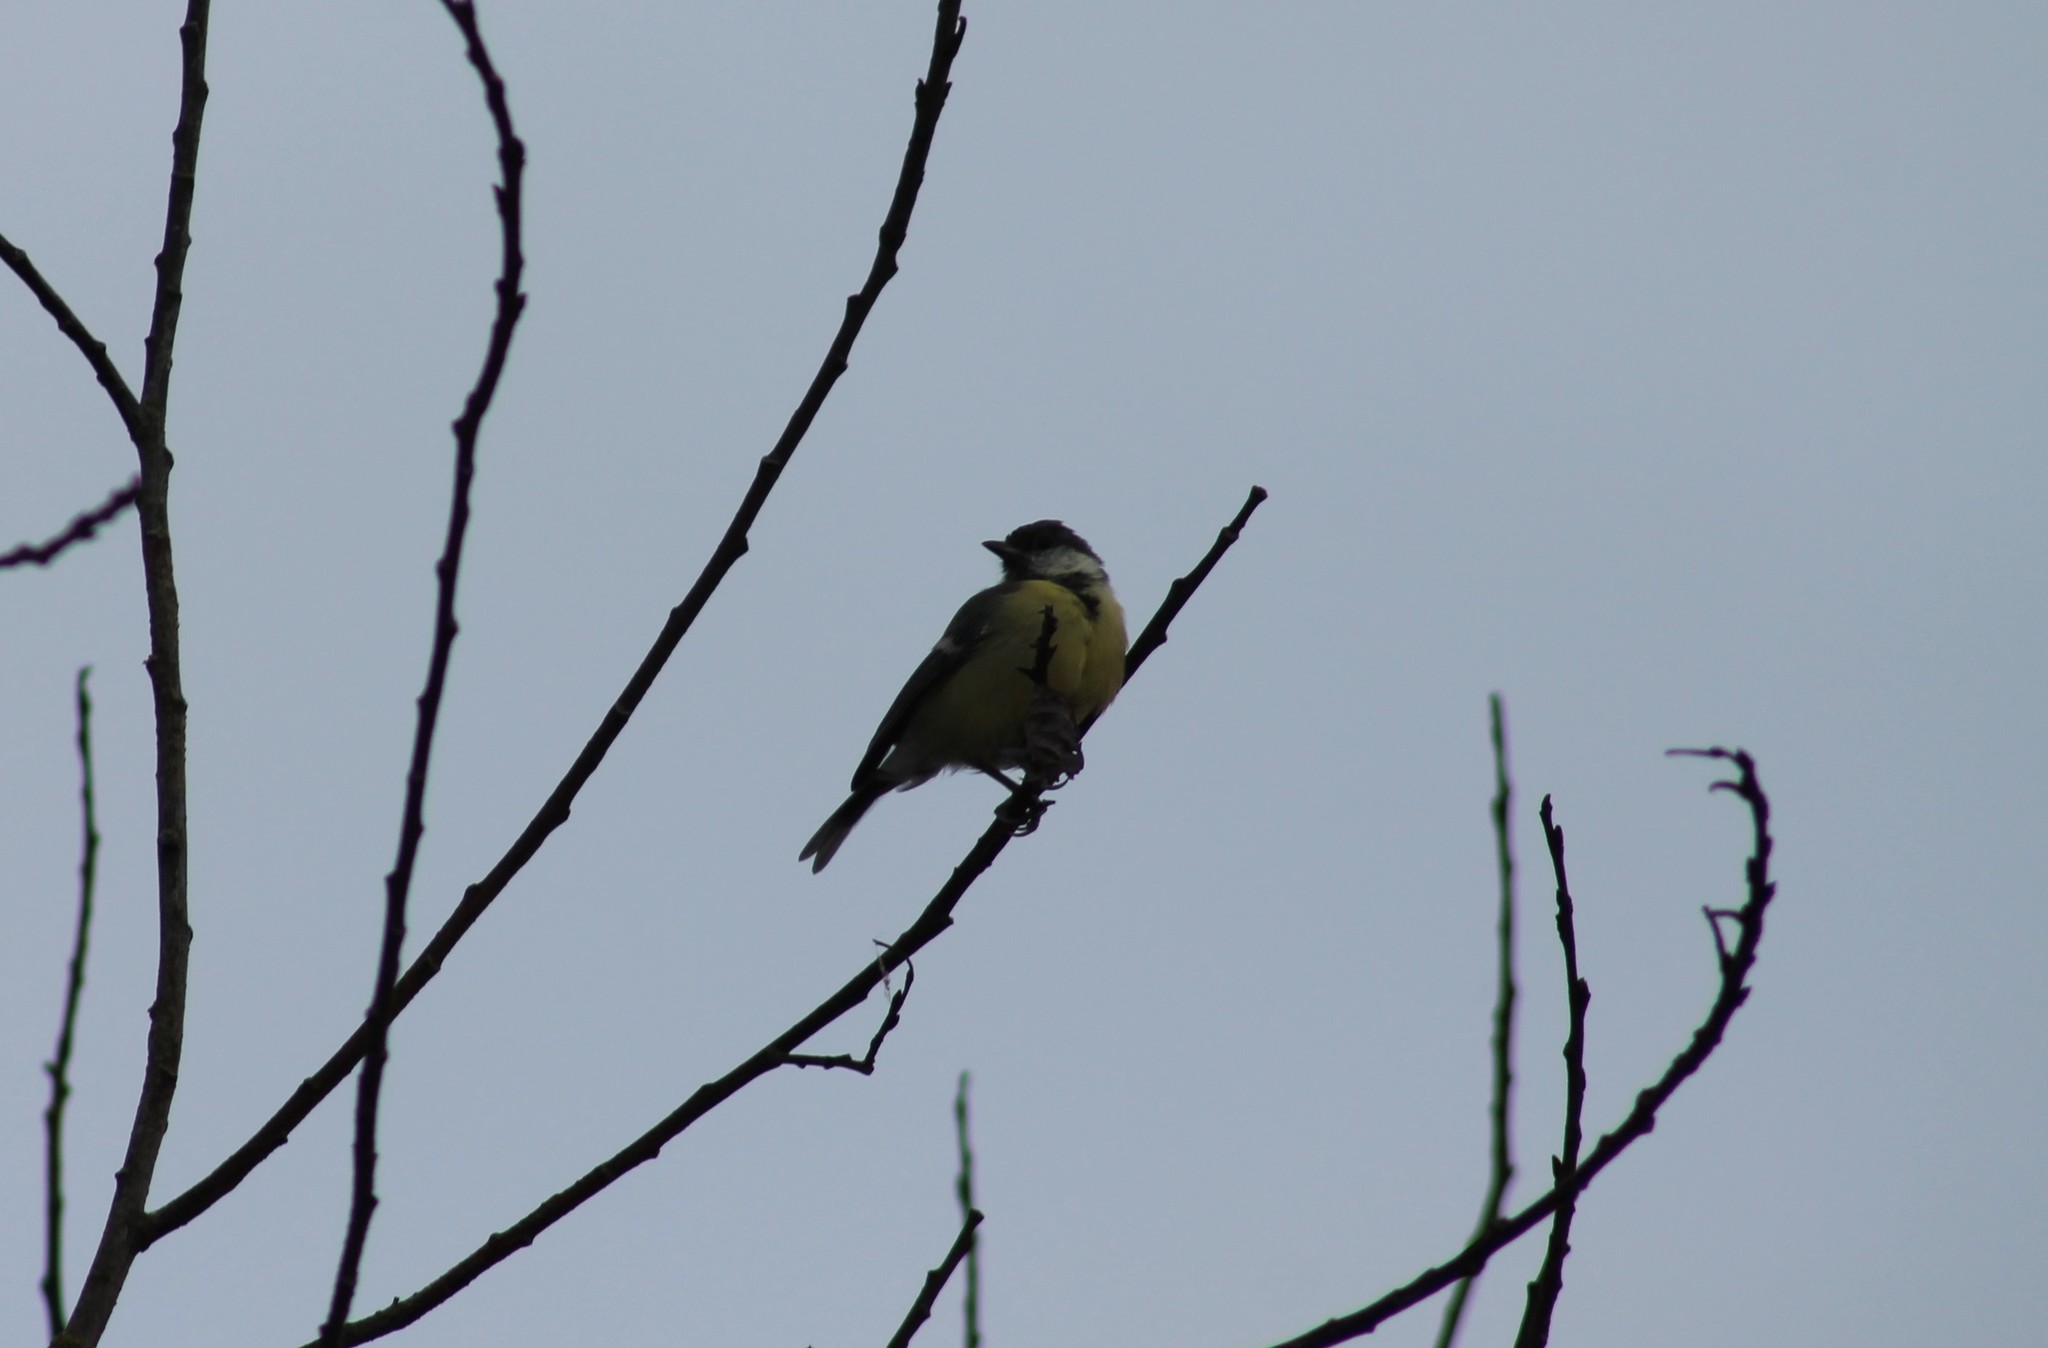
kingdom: Animalia
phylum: Chordata
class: Aves
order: Passeriformes
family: Paridae
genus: Parus
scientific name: Parus major
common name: Great tit
